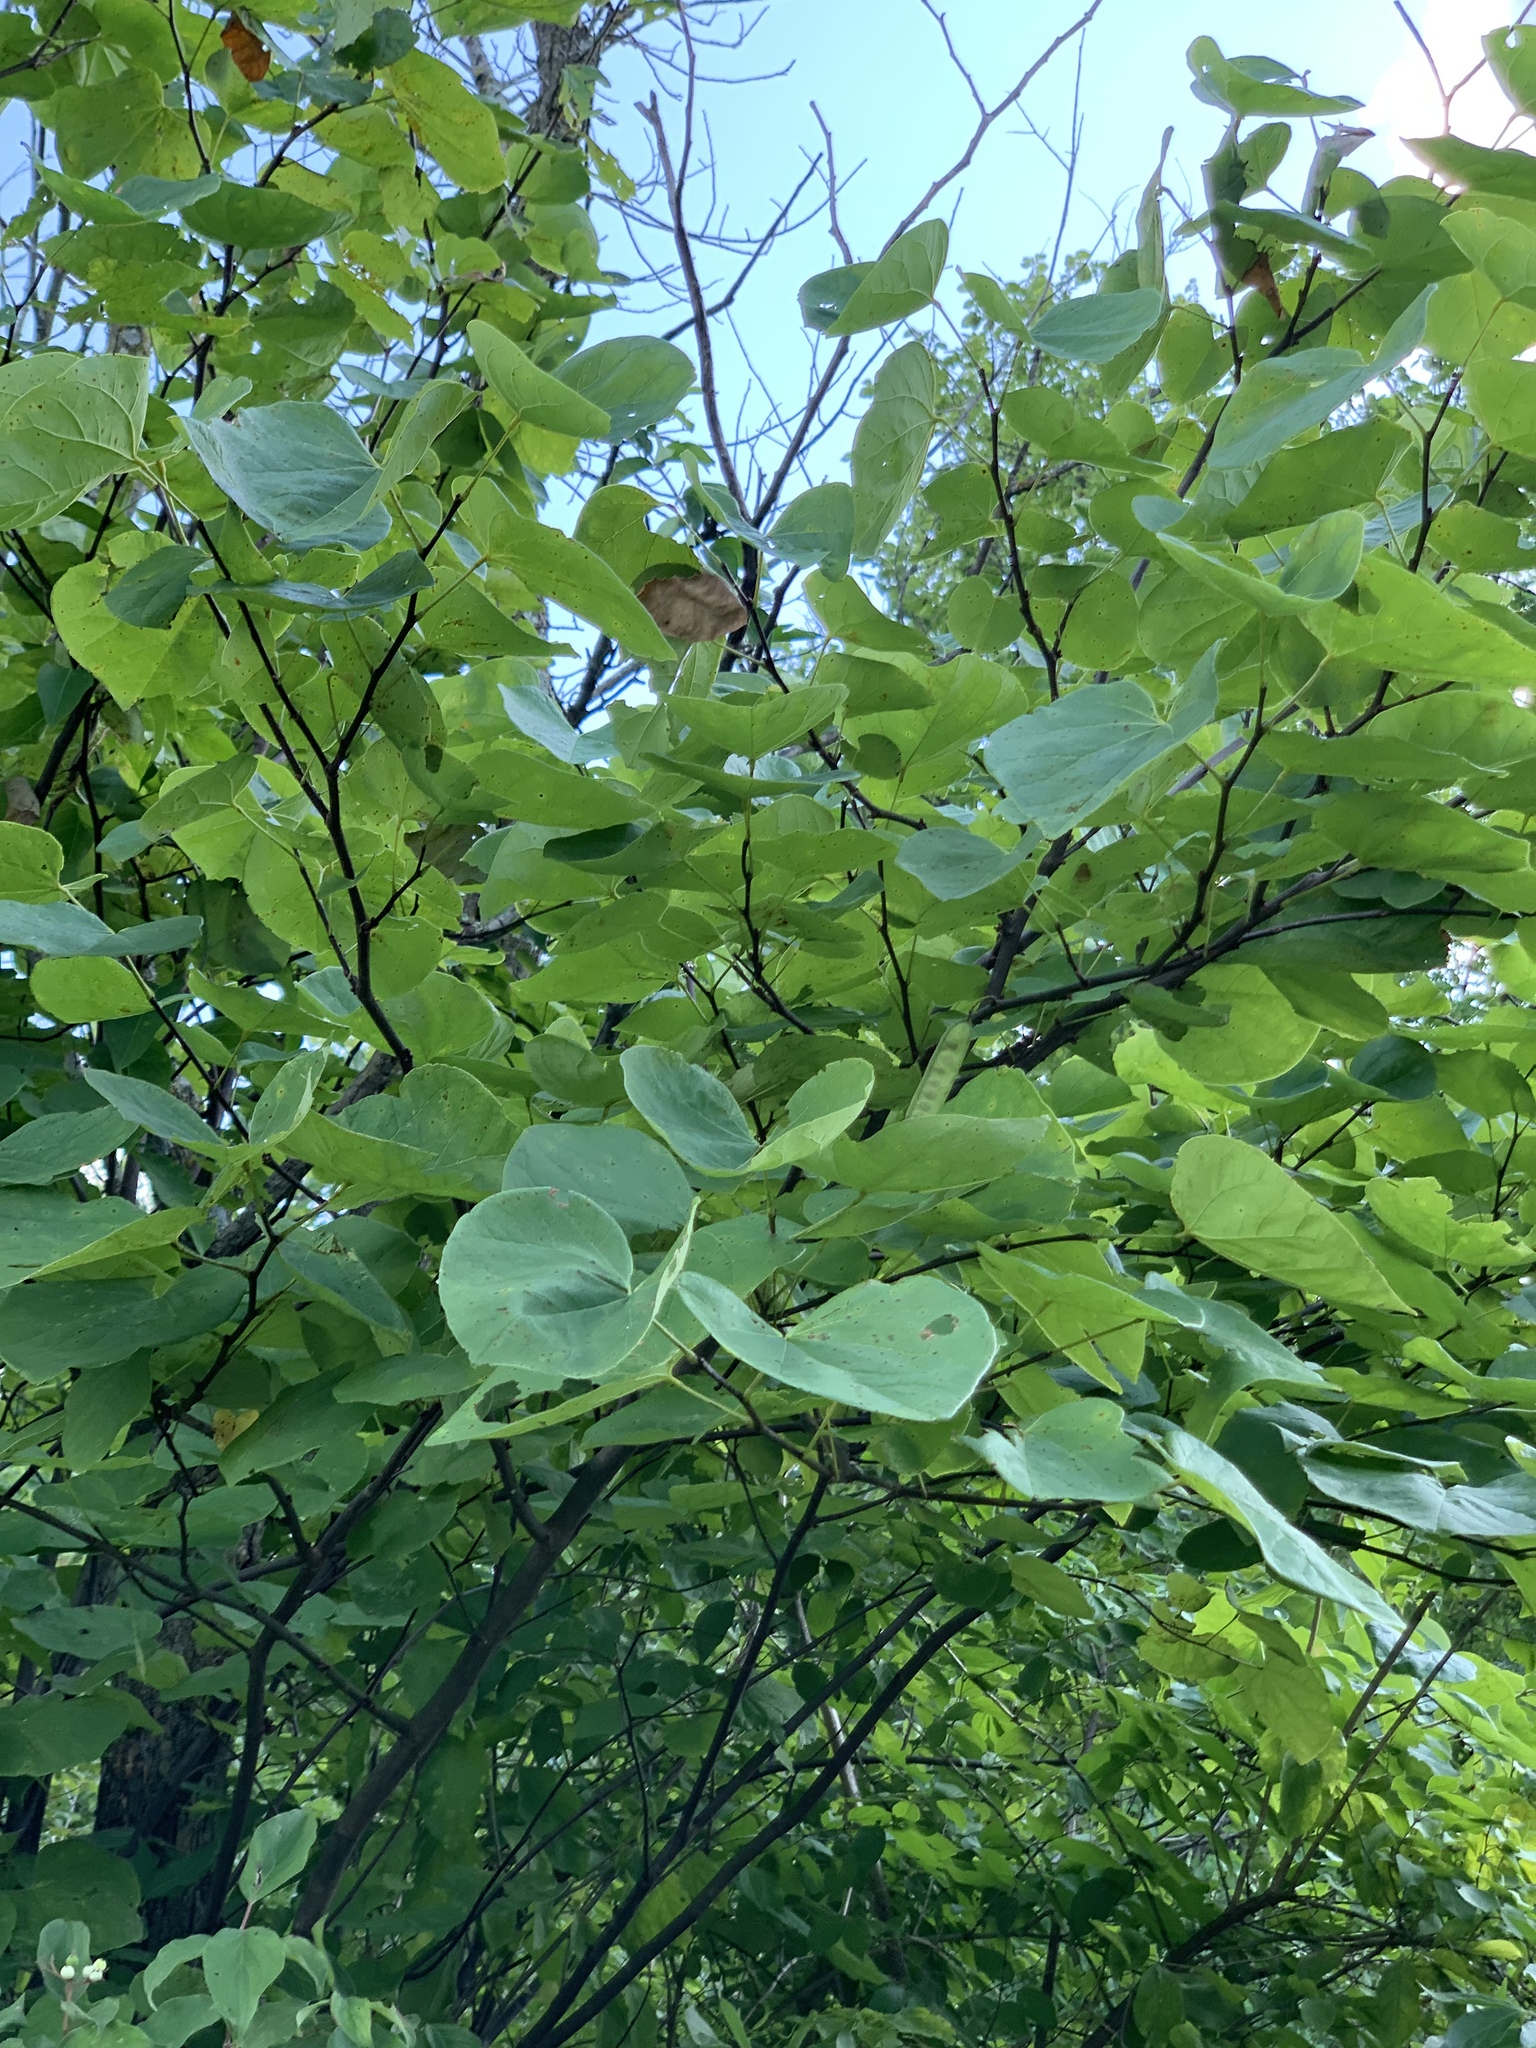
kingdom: Plantae
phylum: Tracheophyta
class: Magnoliopsida
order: Fabales
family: Fabaceae
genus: Cercis
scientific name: Cercis canadensis
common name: Eastern redbud
